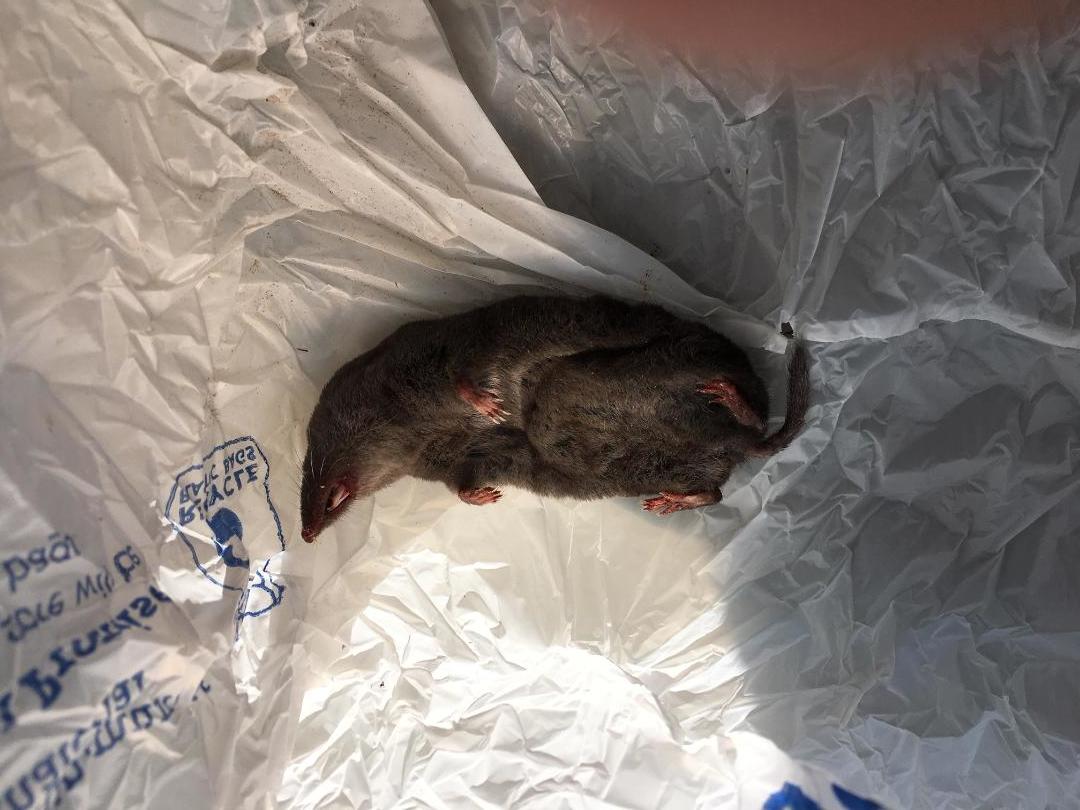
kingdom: Animalia
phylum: Chordata
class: Mammalia
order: Soricomorpha
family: Soricidae
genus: Blarina
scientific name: Blarina brevicauda
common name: Northern short-tailed shrew
